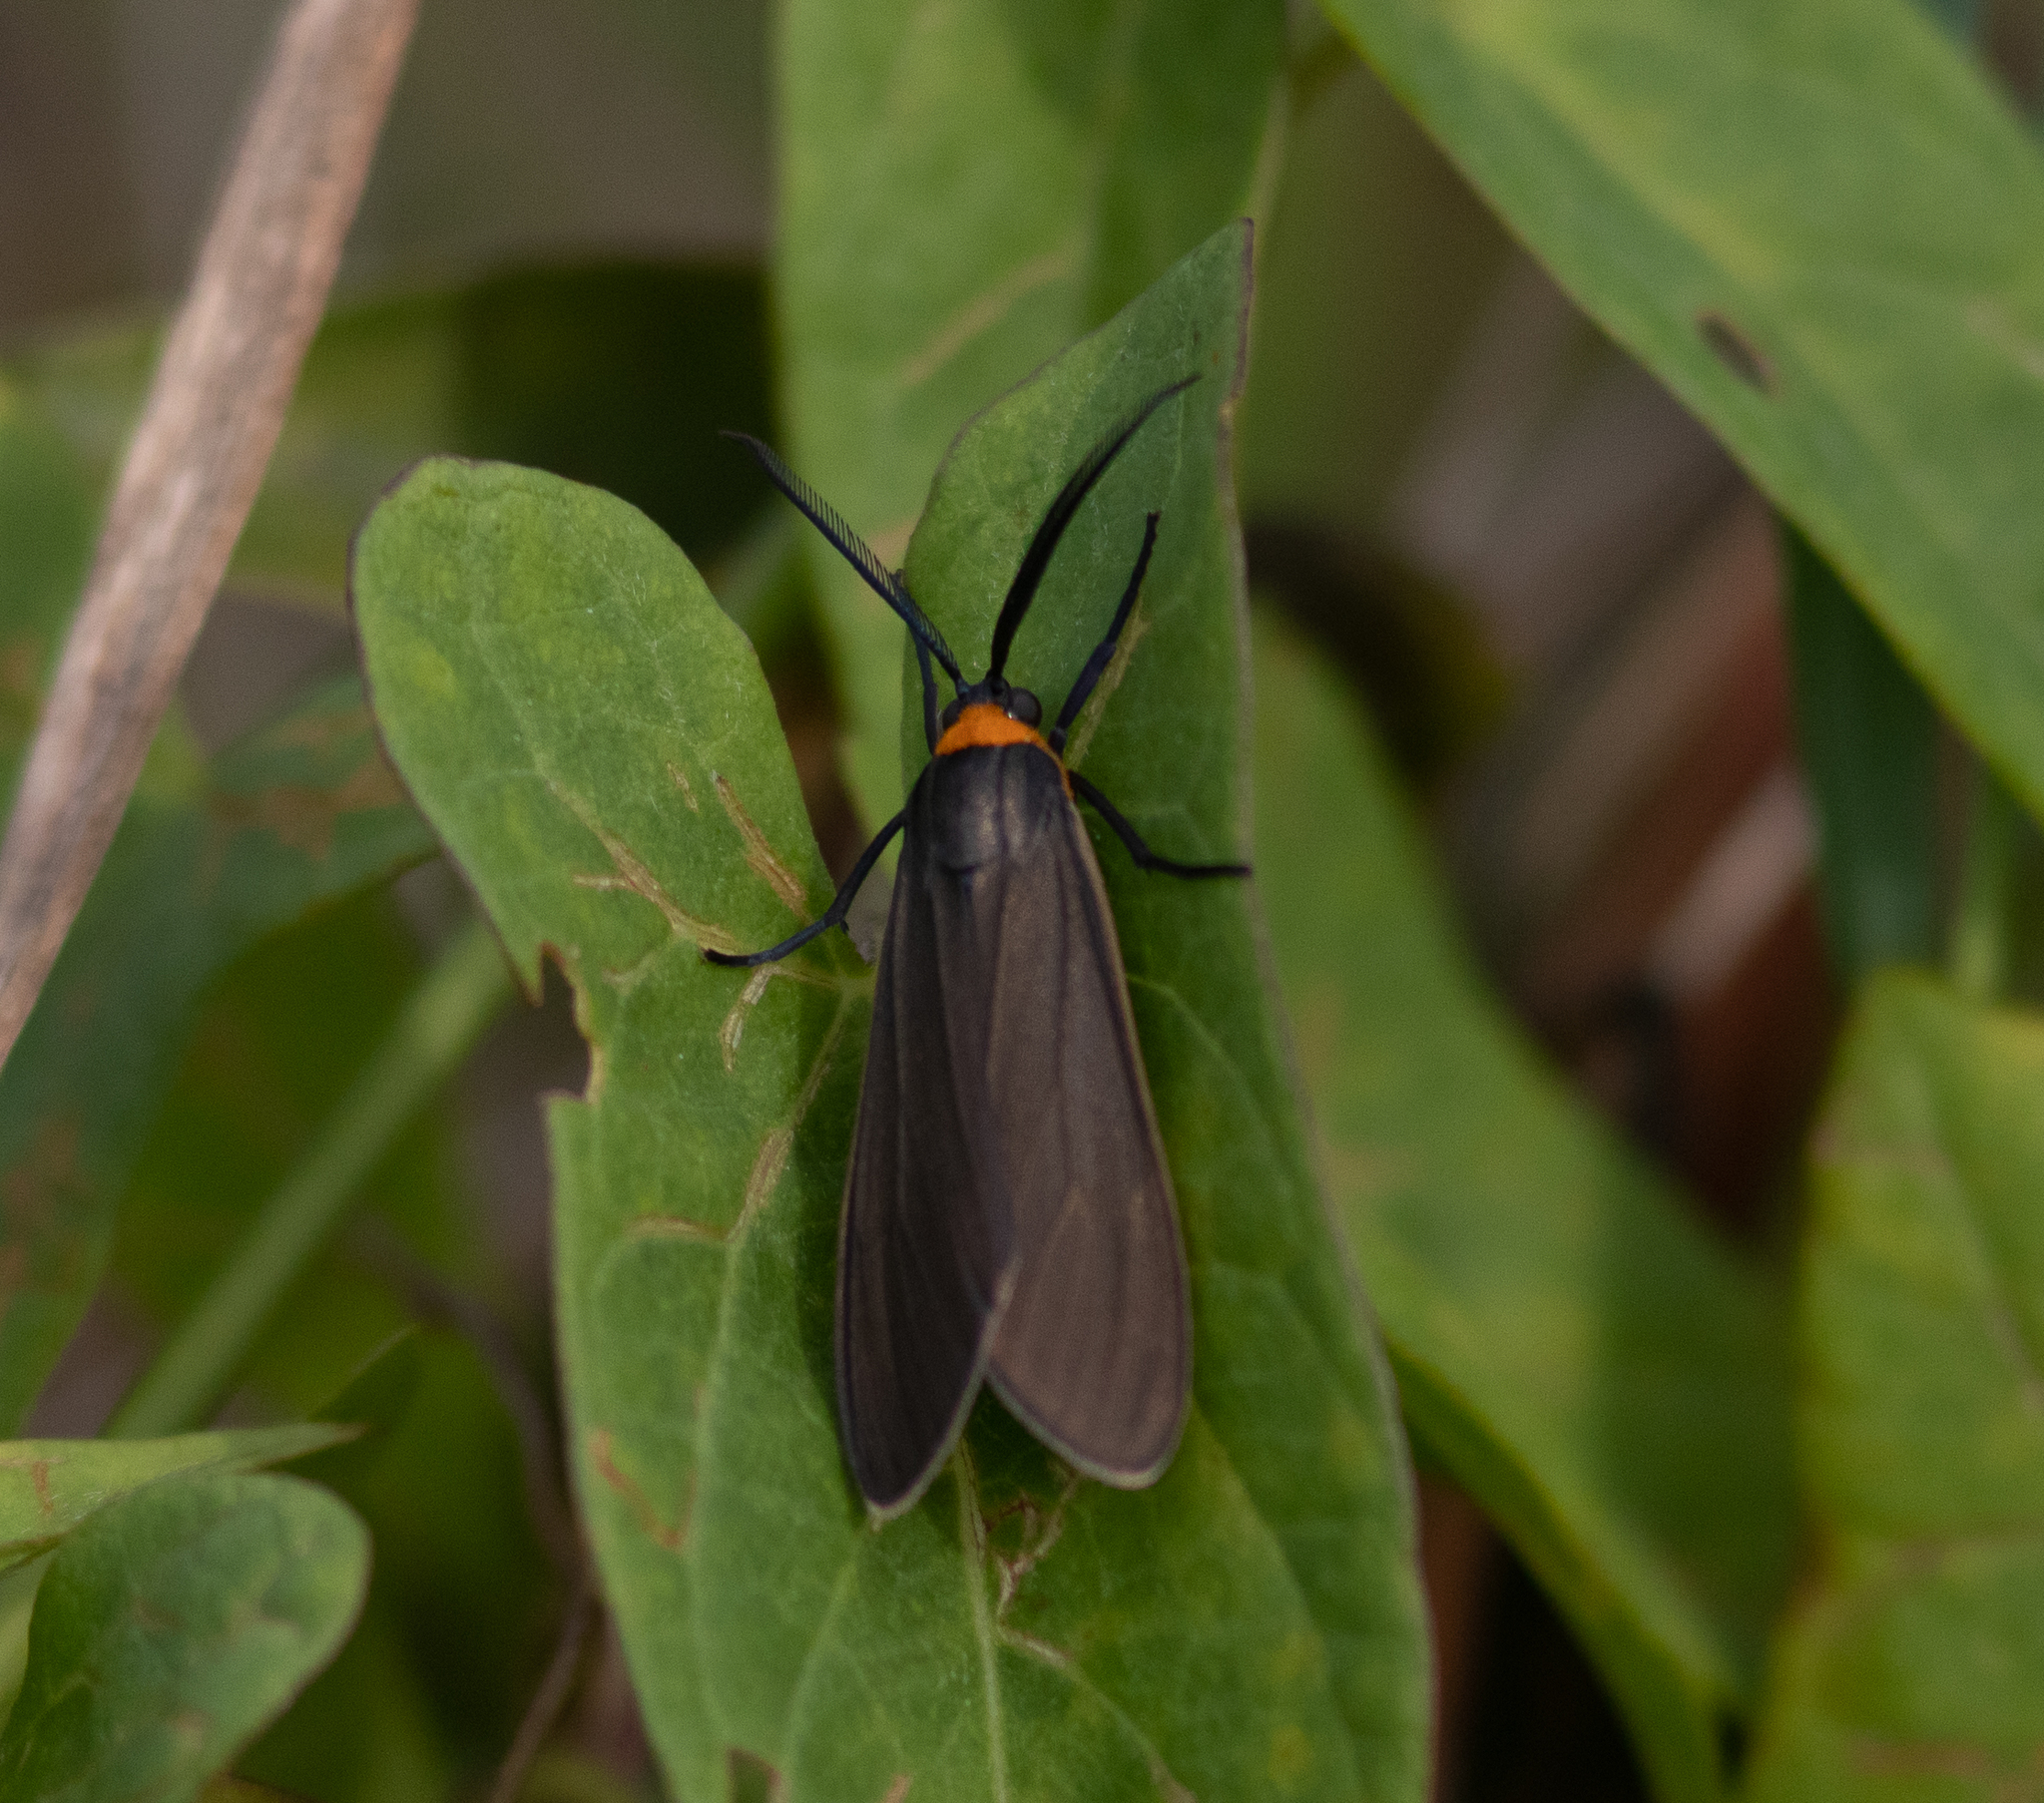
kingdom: Animalia
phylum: Arthropoda
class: Insecta
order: Lepidoptera
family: Erebidae
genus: Cisseps
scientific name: Cisseps fulvicollis
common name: Yellow-collared scape moth
